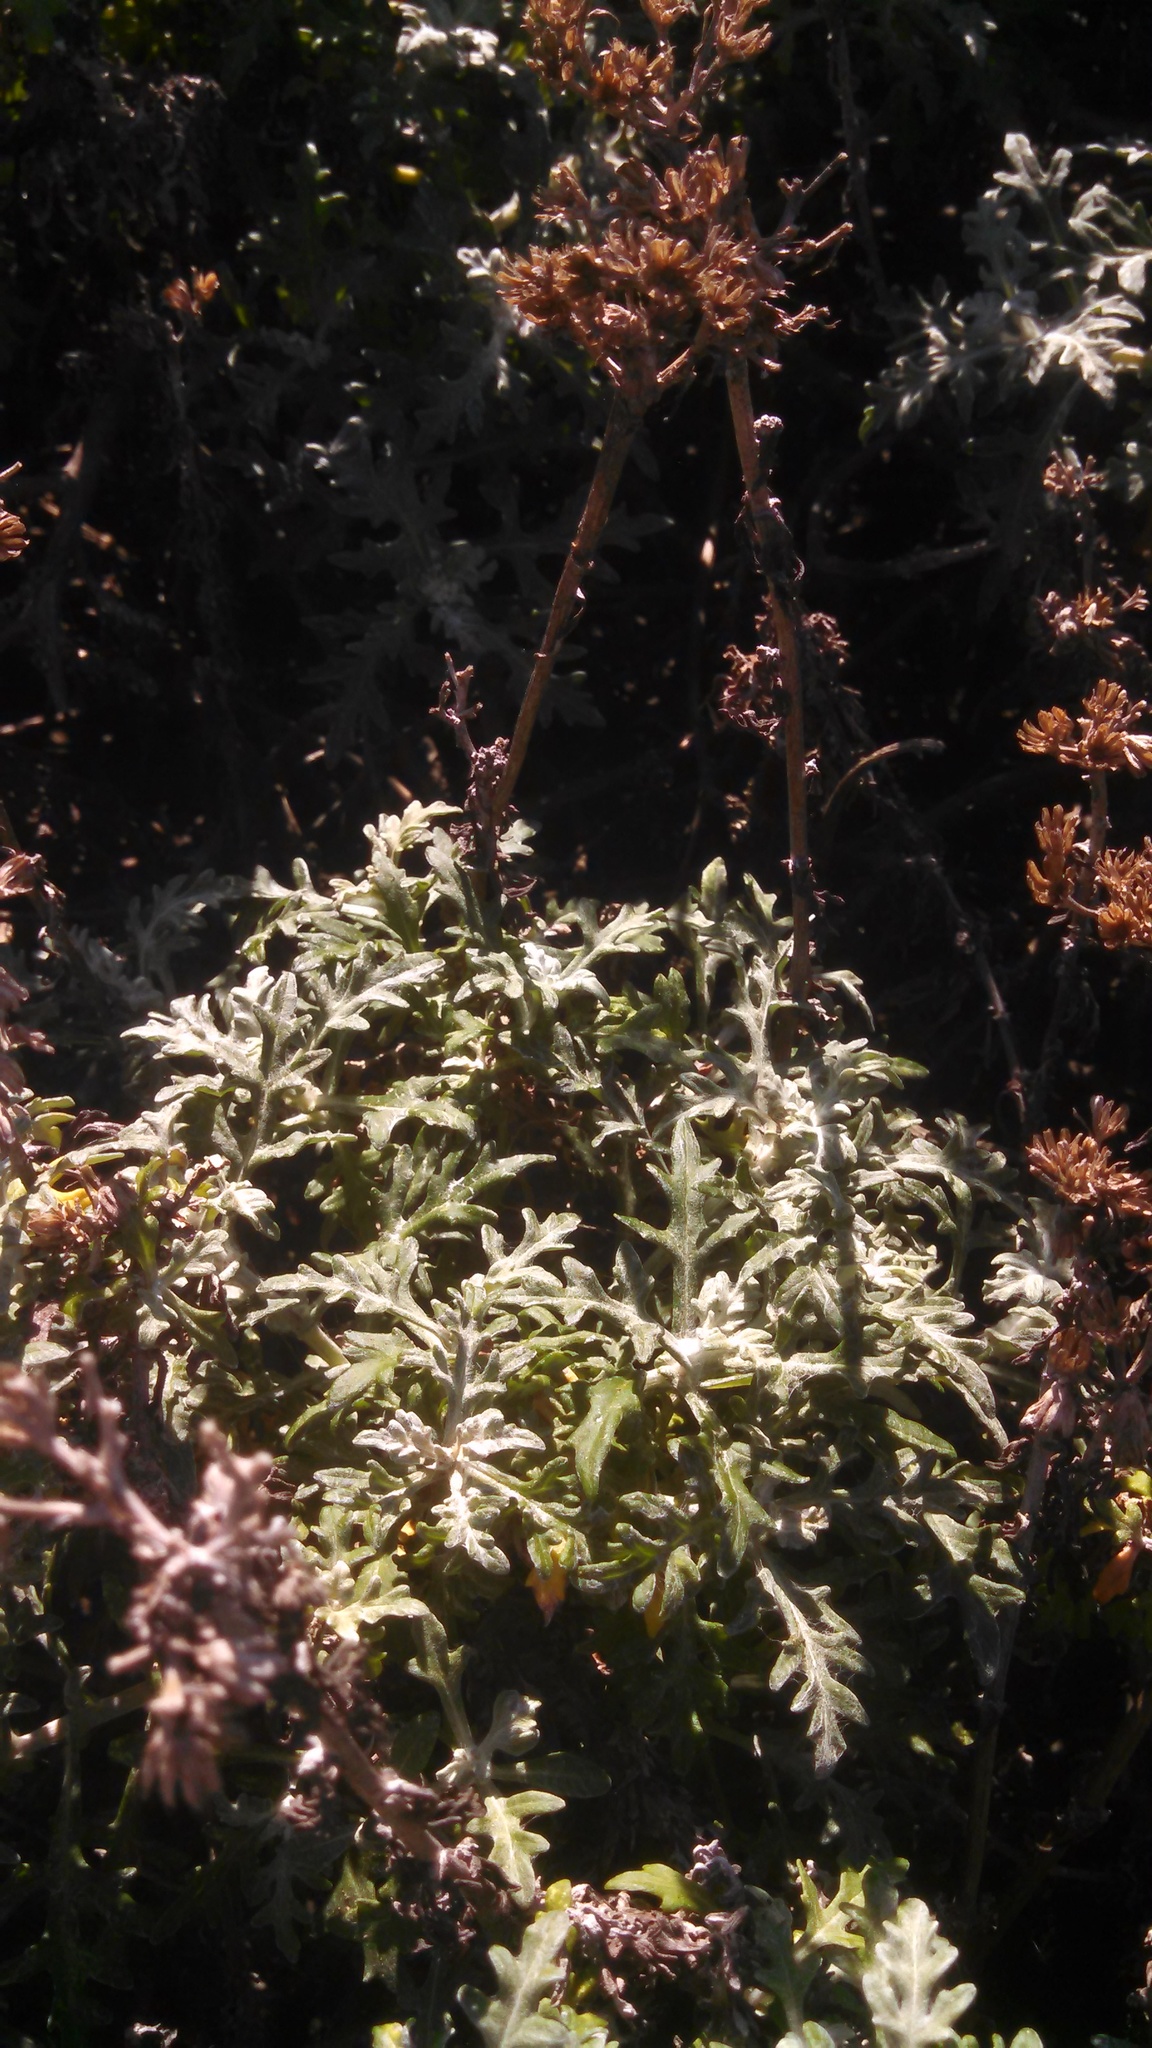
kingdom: Plantae
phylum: Tracheophyta
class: Magnoliopsida
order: Asterales
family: Asteraceae
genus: Eriophyllum
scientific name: Eriophyllum staechadifolium
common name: Lizardtail
